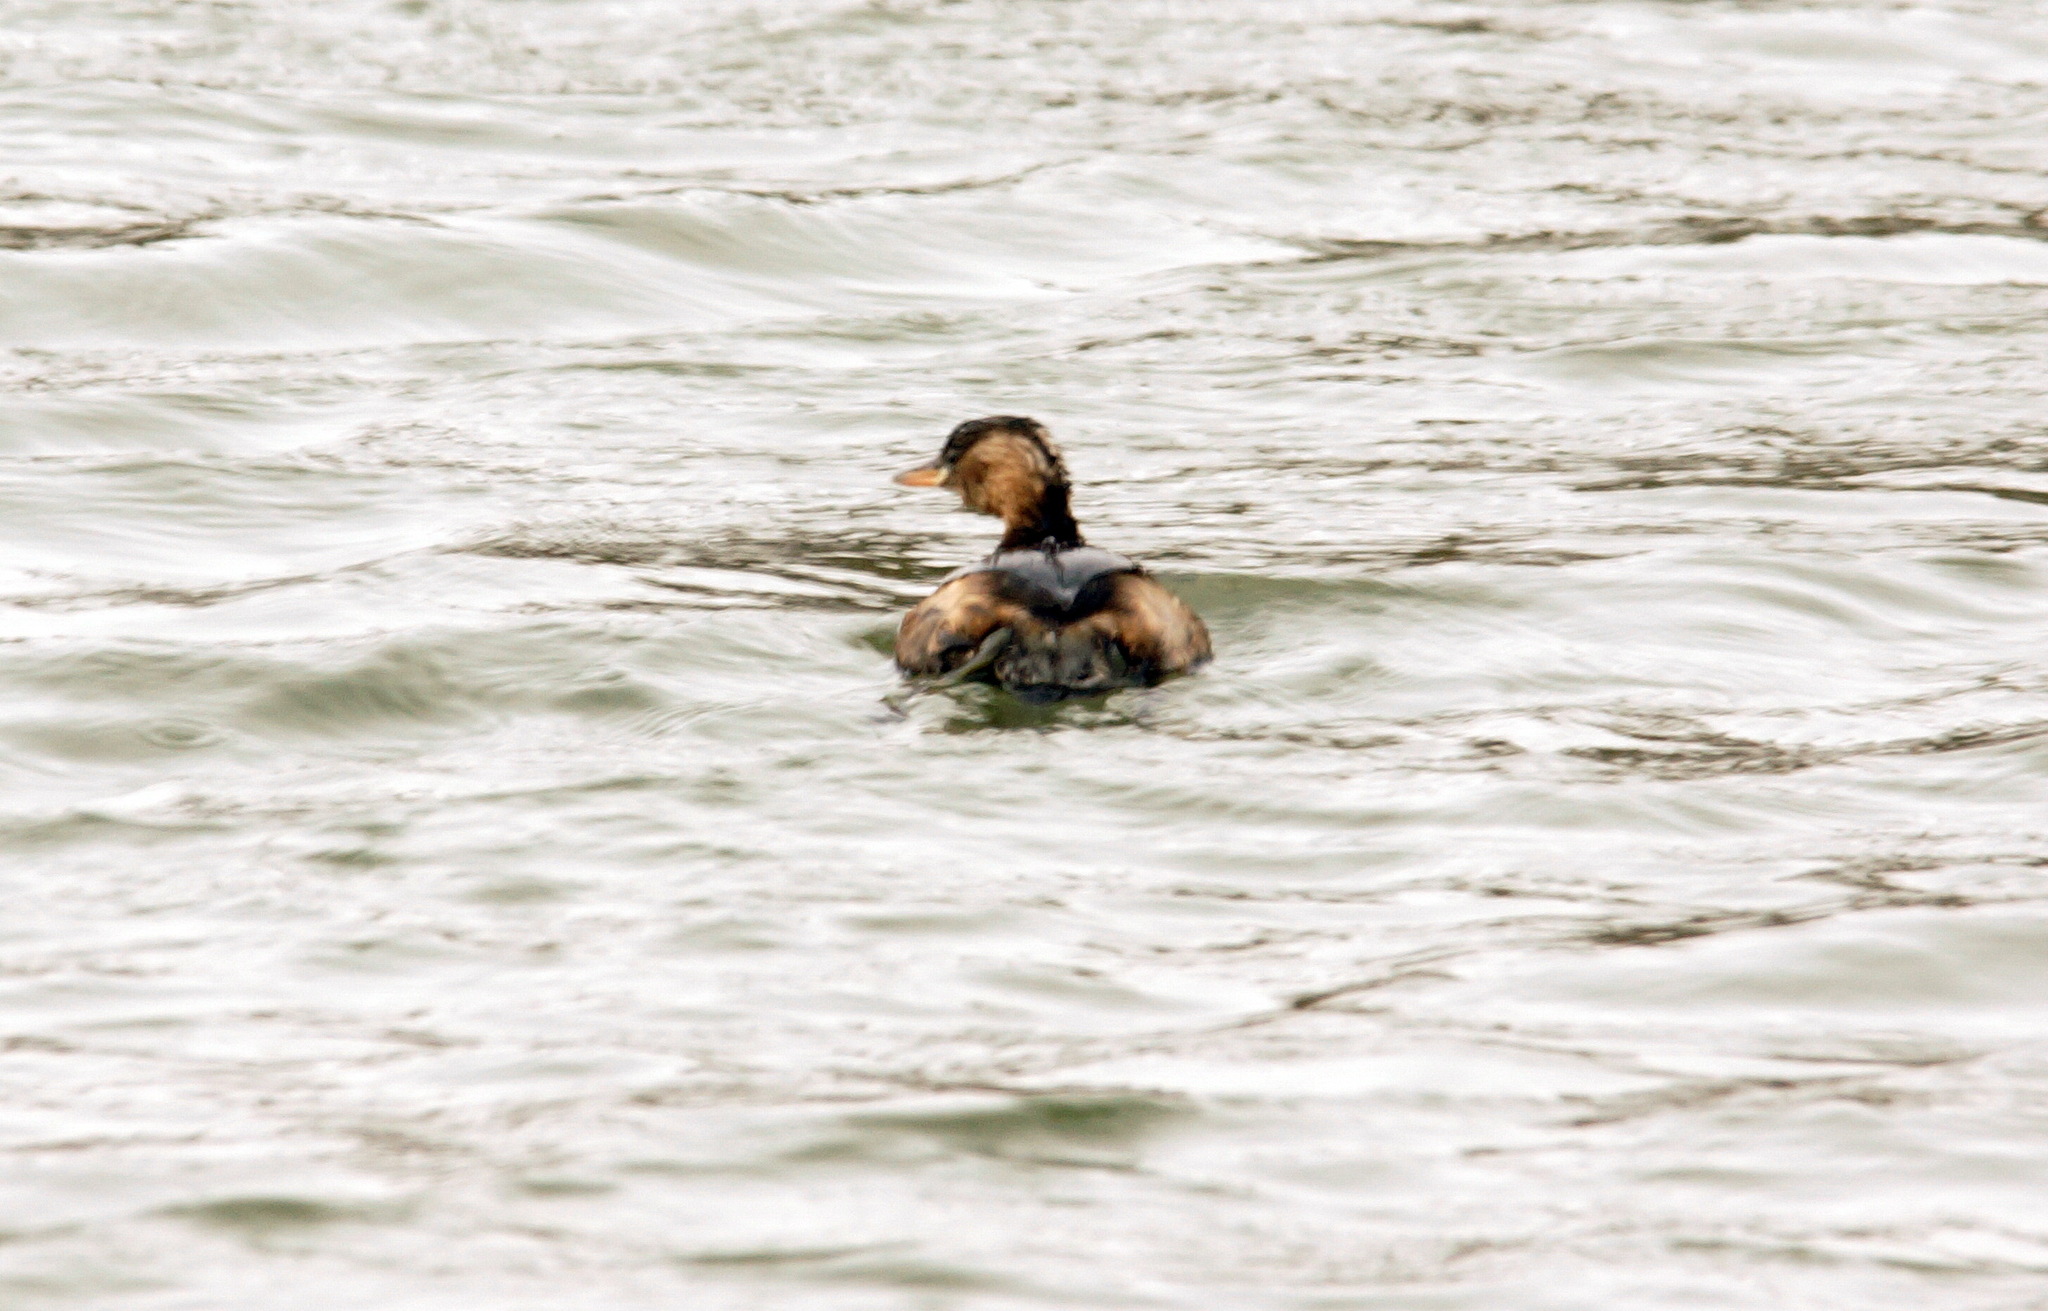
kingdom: Animalia
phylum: Chordata
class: Aves
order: Podicipediformes
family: Podicipedidae
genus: Tachybaptus
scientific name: Tachybaptus ruficollis
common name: Little grebe
